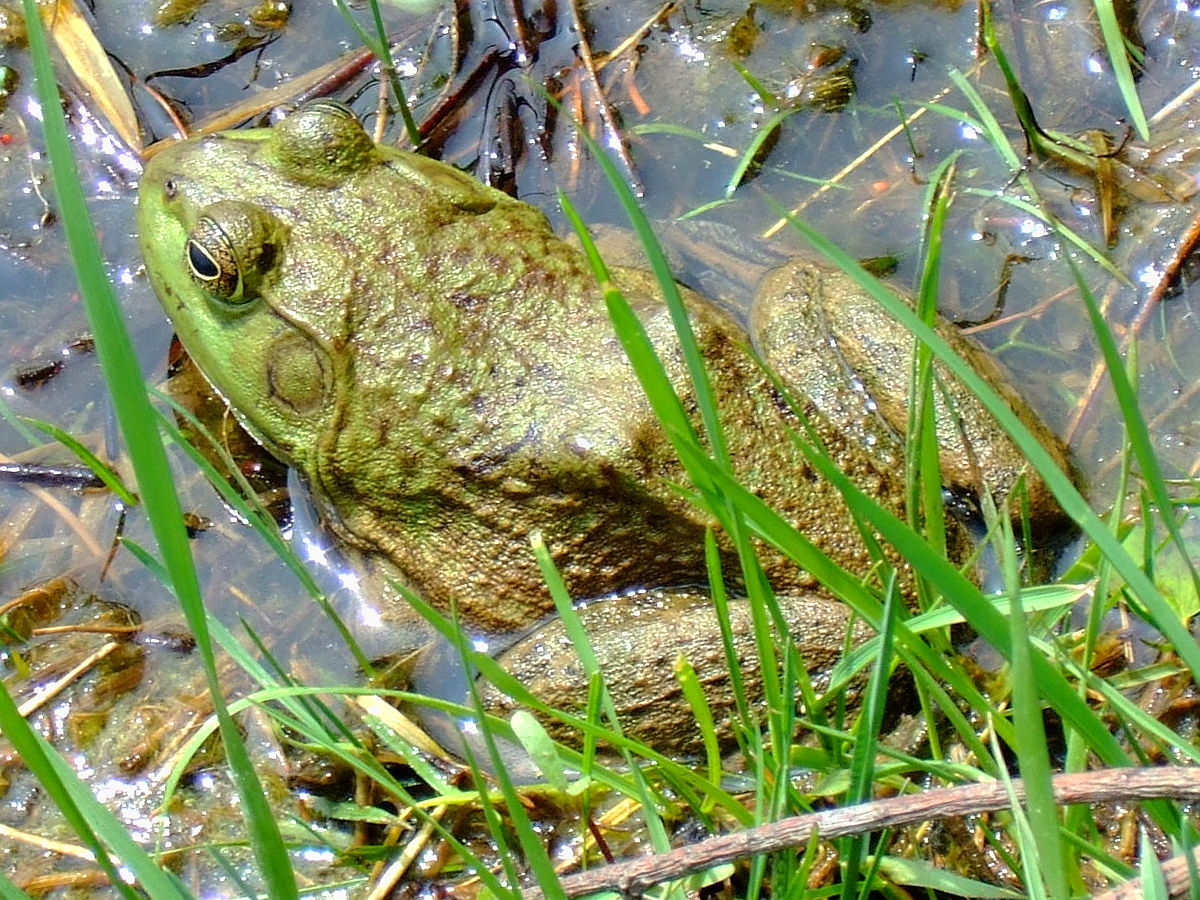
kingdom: Animalia
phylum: Chordata
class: Amphibia
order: Anura
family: Ranidae
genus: Lithobates
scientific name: Lithobates catesbeianus
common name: American bullfrog
